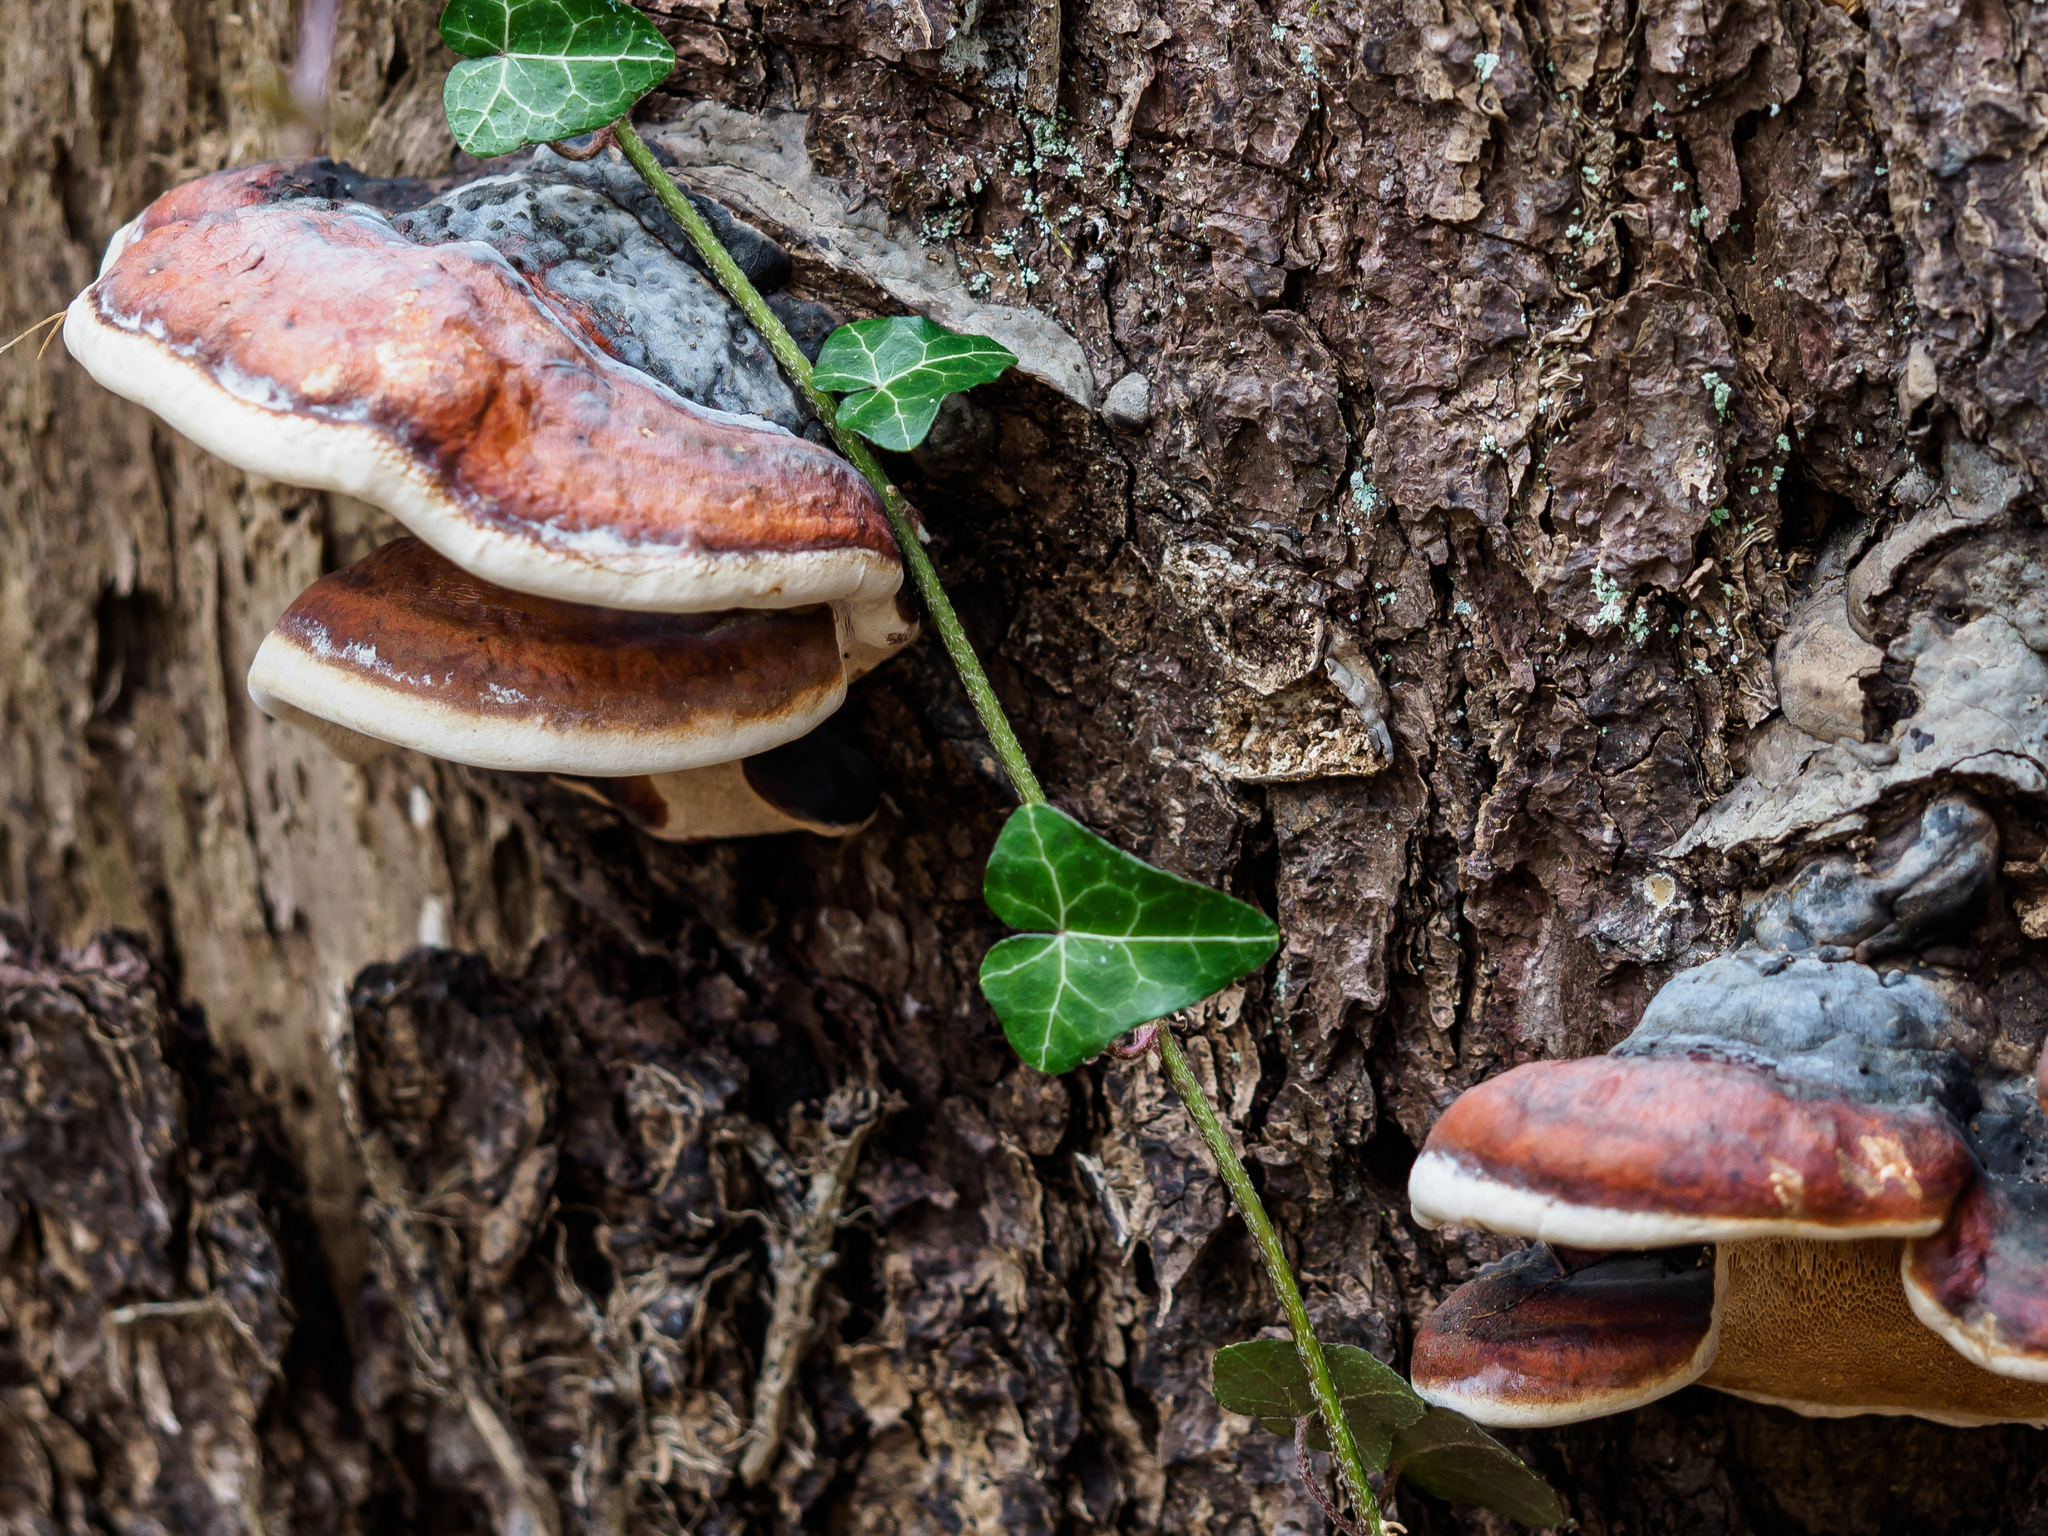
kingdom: Fungi
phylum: Basidiomycota
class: Agaricomycetes
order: Polyporales
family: Fomitopsidaceae
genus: Fomitopsis
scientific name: Fomitopsis pinicola
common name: Red-belted bracket
